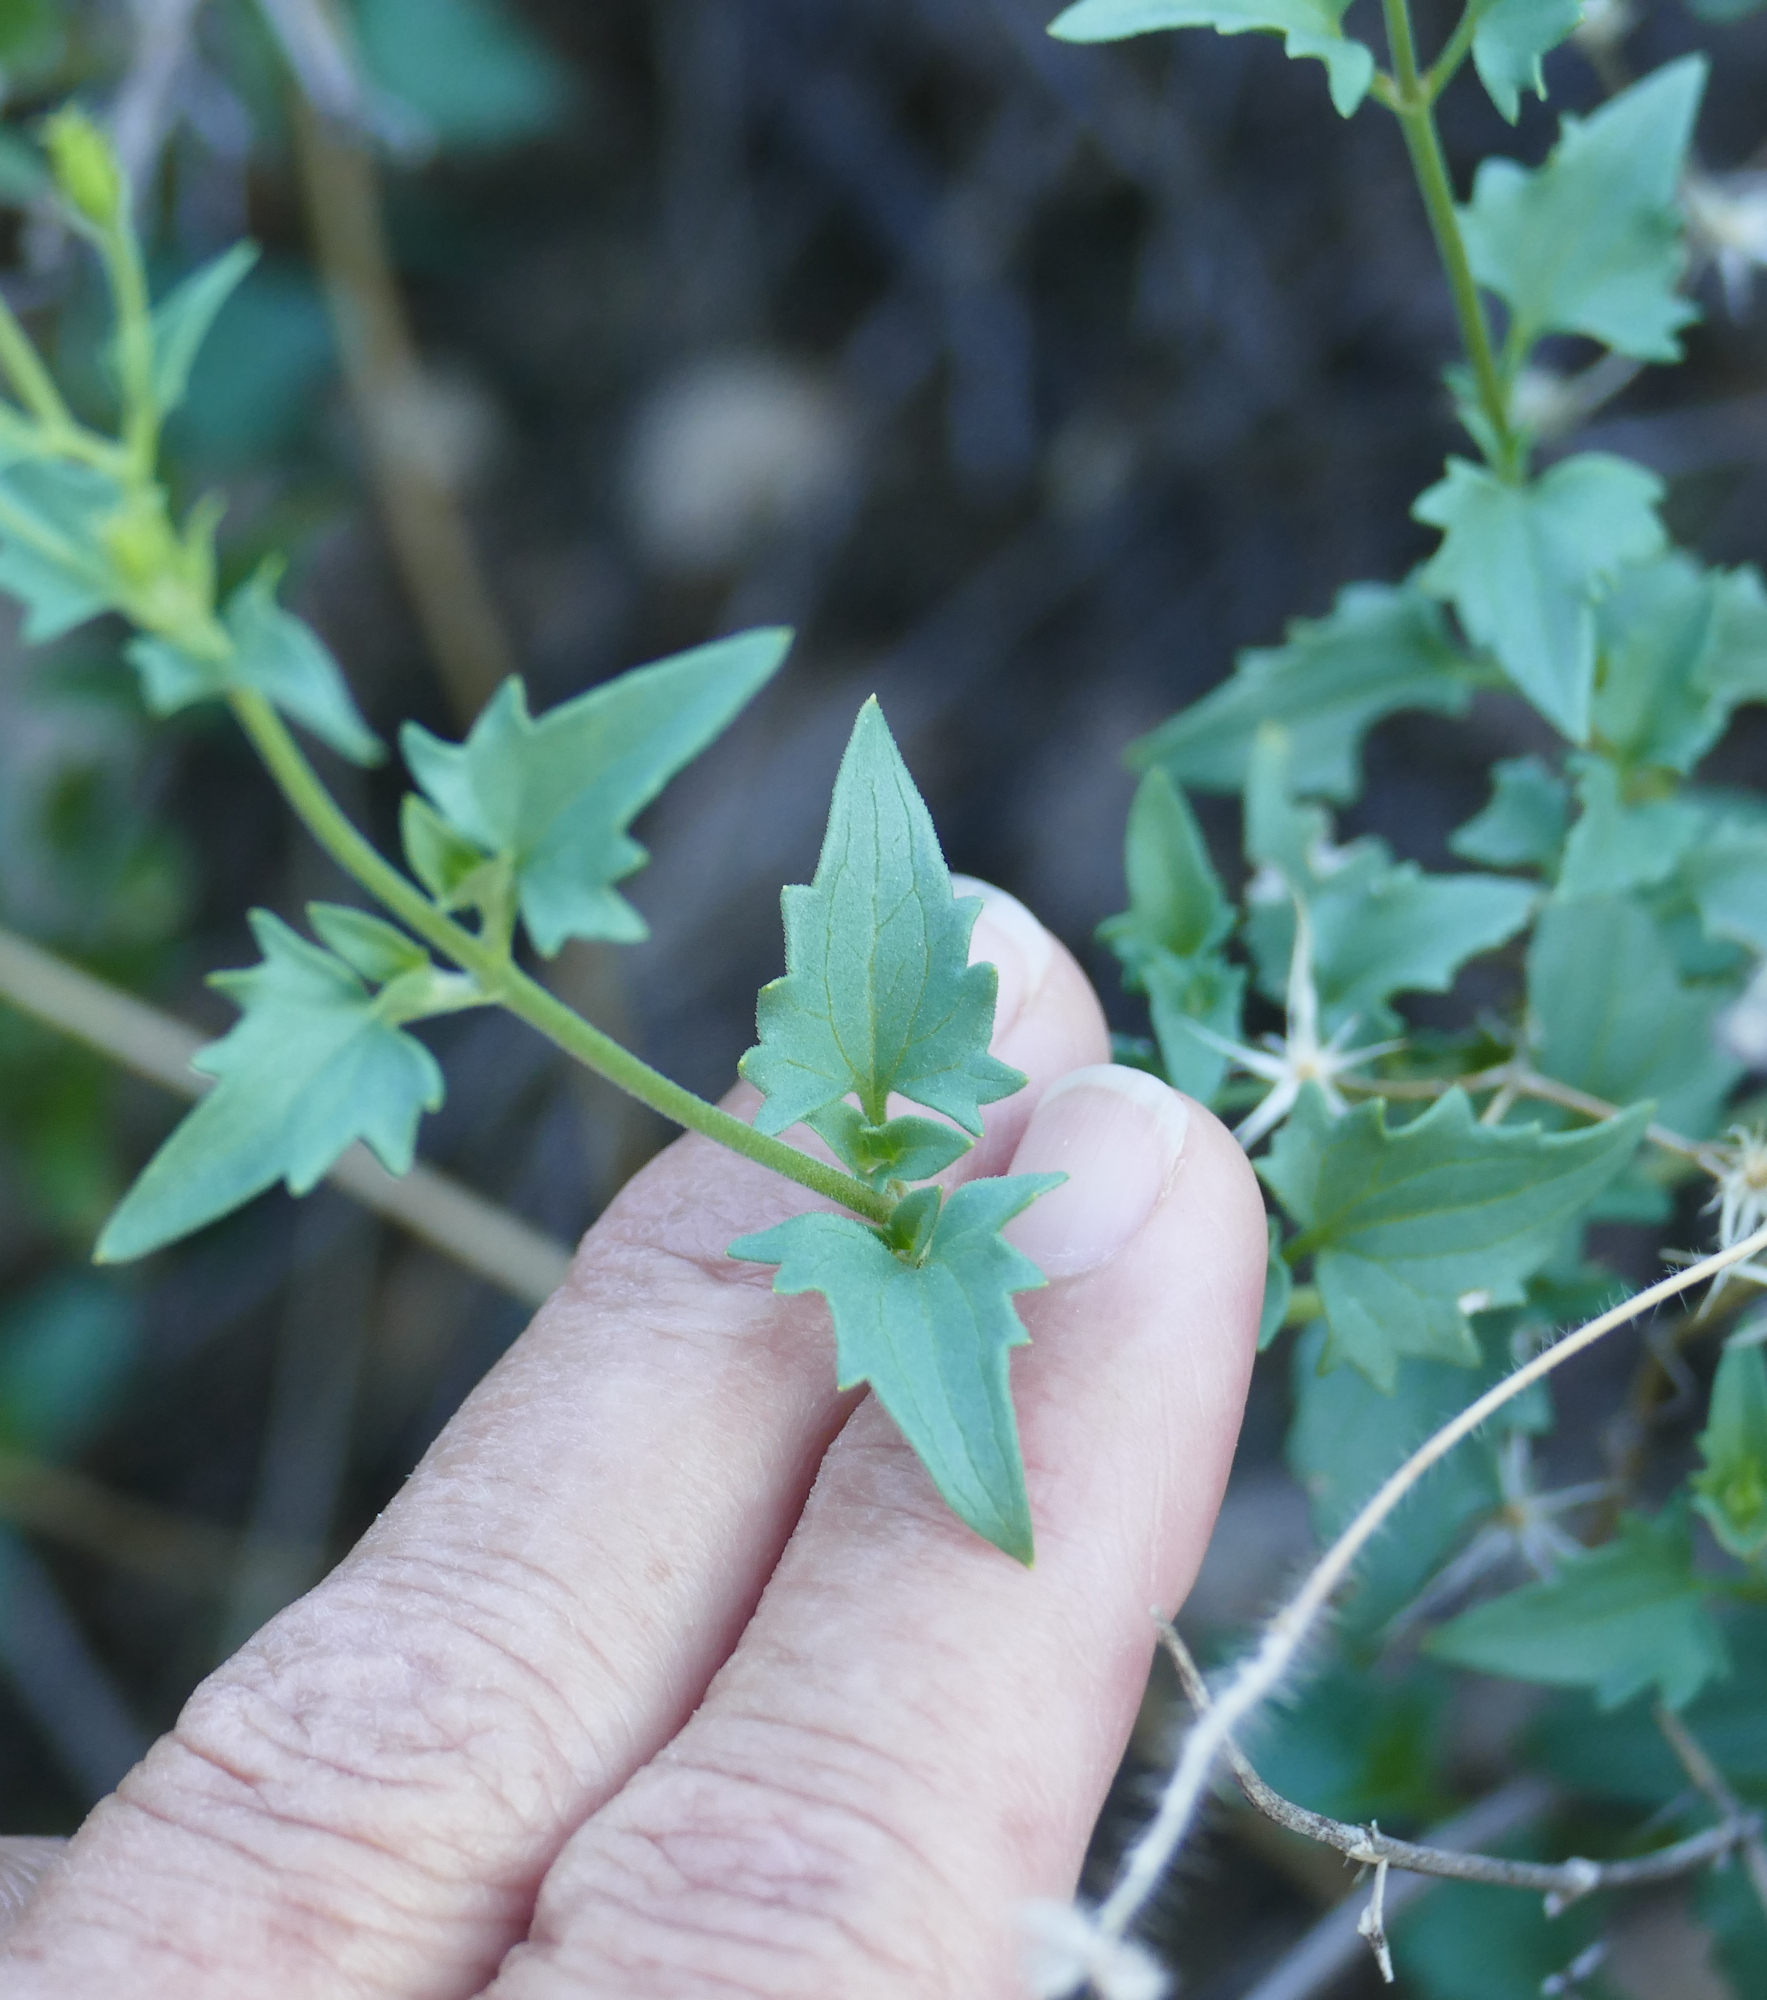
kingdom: Plantae
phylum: Tracheophyta
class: Magnoliopsida
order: Asterales
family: Asteraceae
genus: Brickellia
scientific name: Brickellia coulteri
